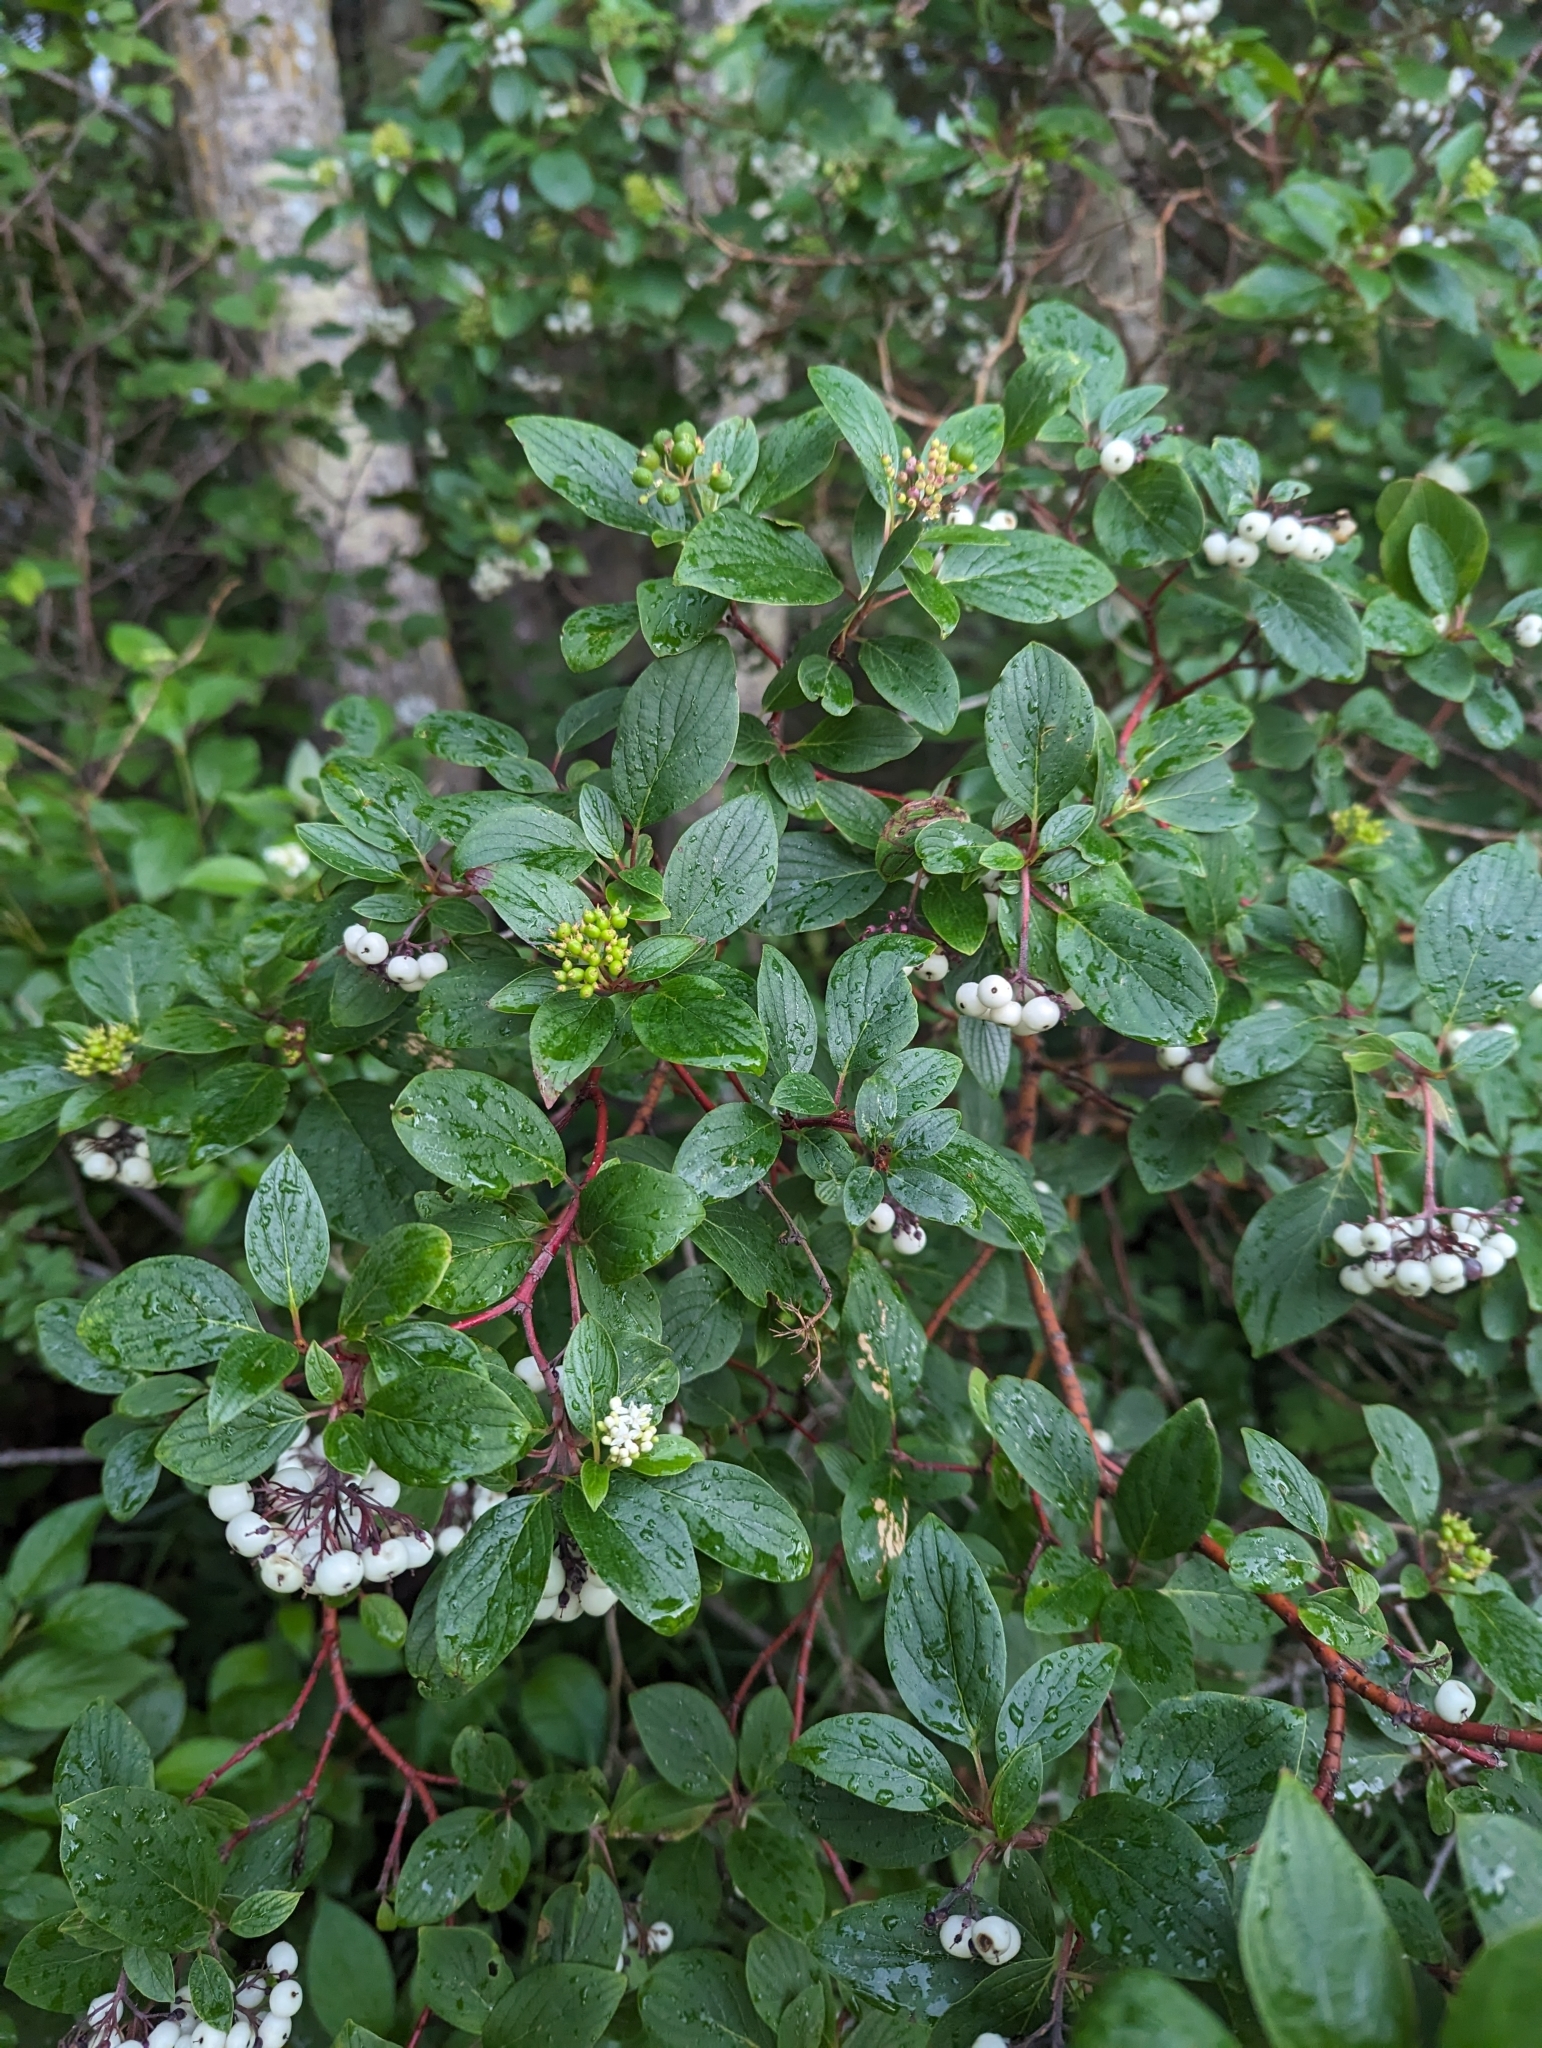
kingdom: Plantae
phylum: Tracheophyta
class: Magnoliopsida
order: Cornales
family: Cornaceae
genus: Cornus
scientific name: Cornus sericea
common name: Red-osier dogwood
